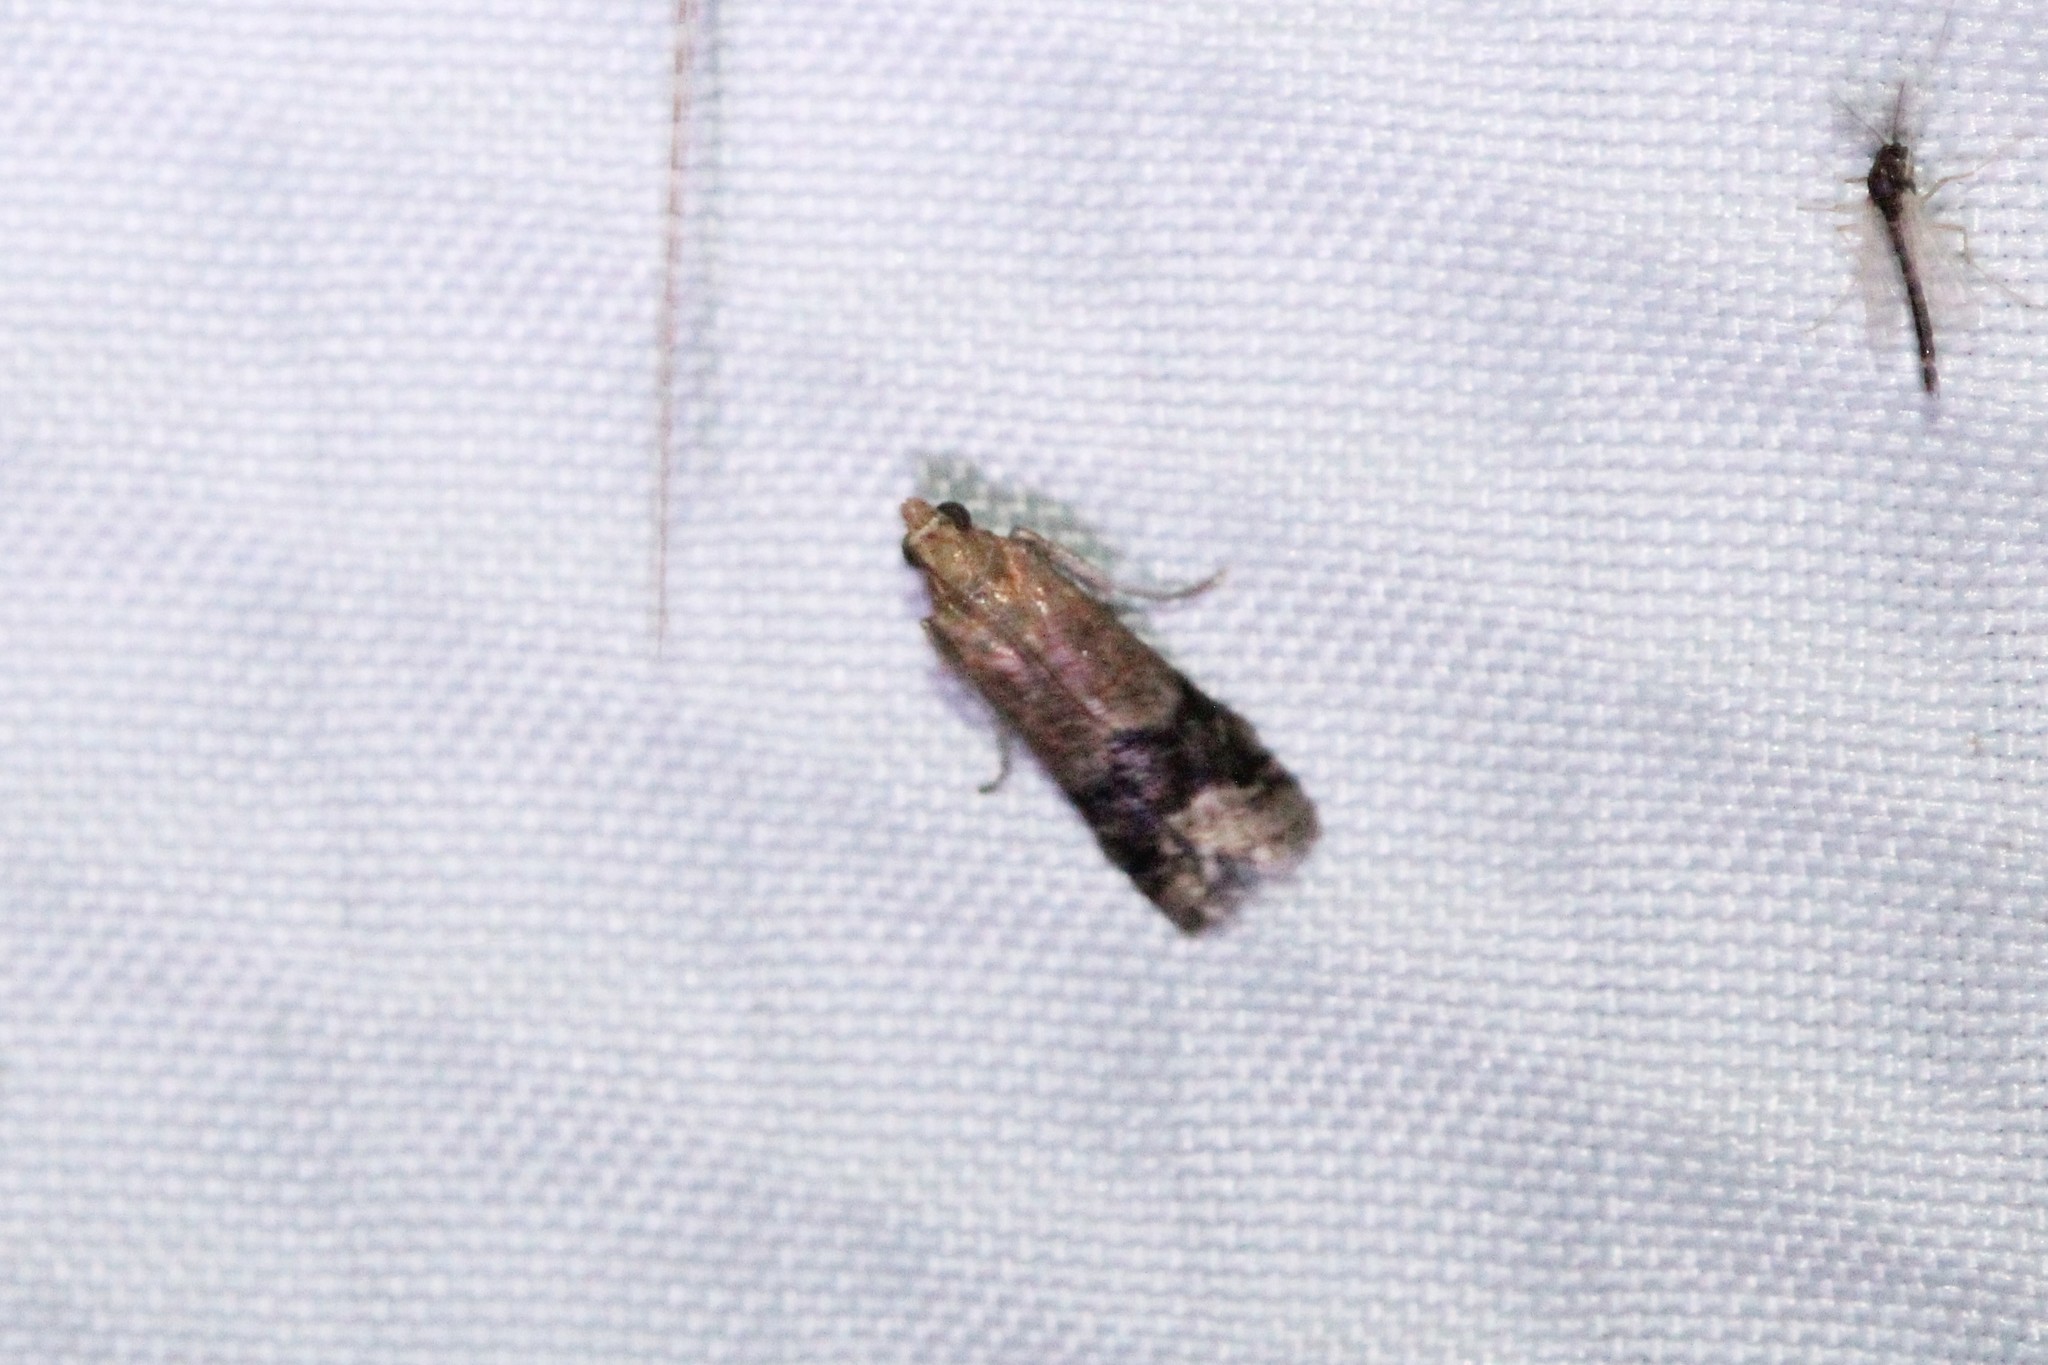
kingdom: Animalia
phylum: Arthropoda
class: Insecta
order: Lepidoptera
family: Pyralidae
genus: Eulogia
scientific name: Eulogia ochrifrontella
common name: Broad-banded eulogia moth
